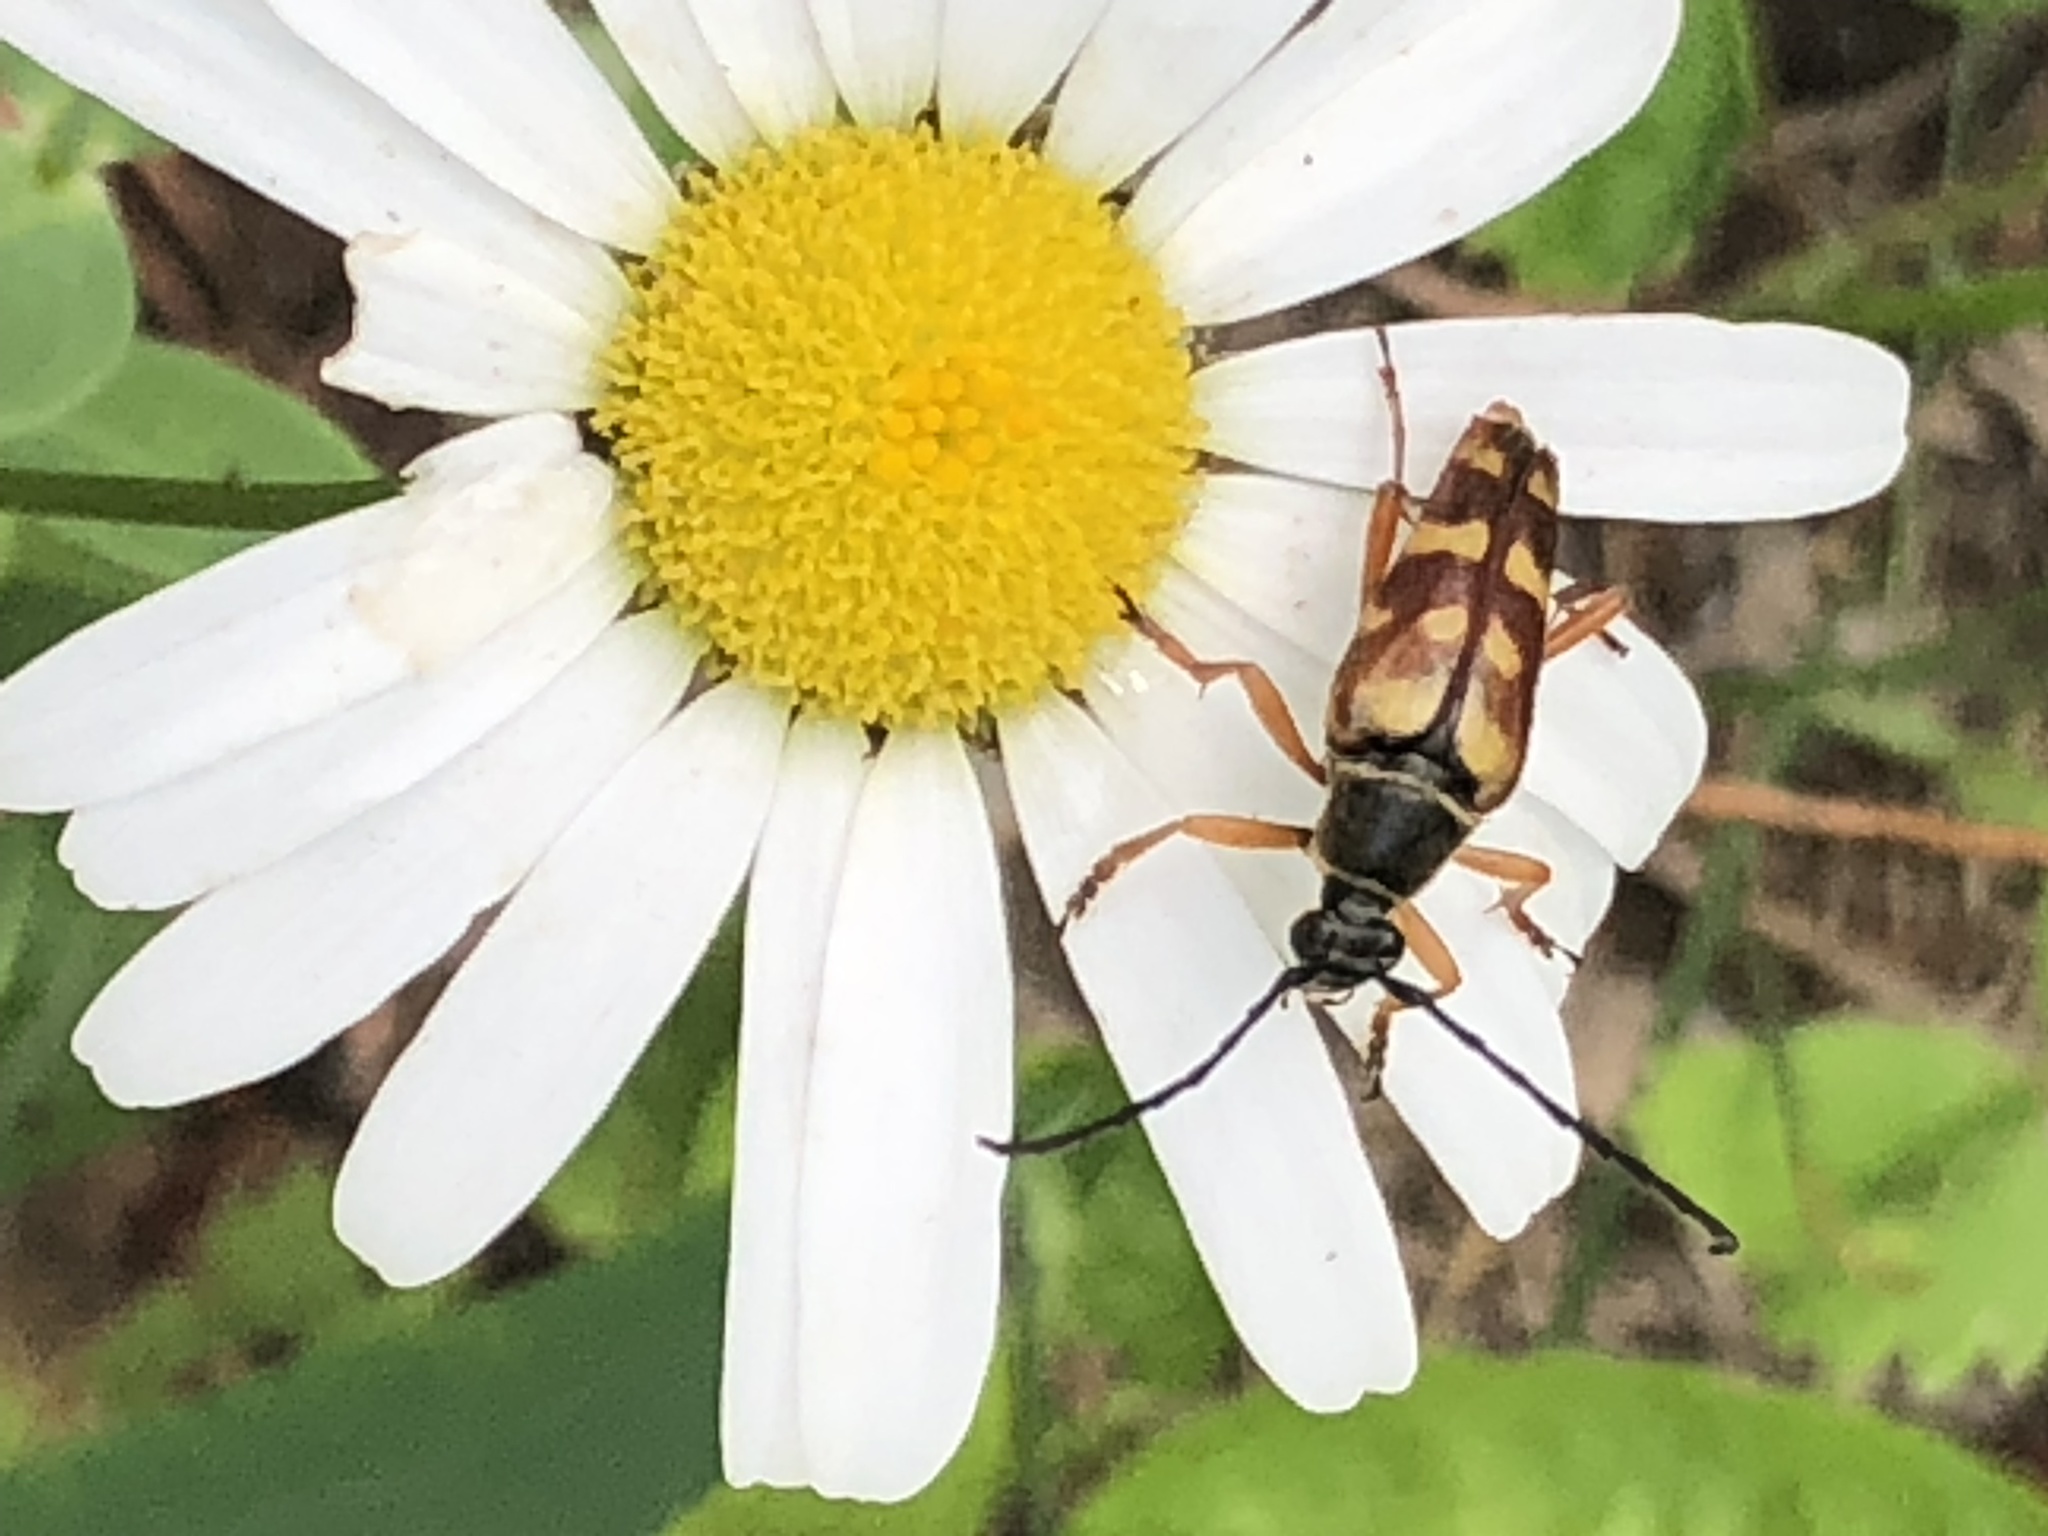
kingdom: Animalia
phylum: Arthropoda
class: Insecta
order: Coleoptera
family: Cerambycidae
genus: Typocerus
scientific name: Typocerus velutinus
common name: Banded longhorn beetle
